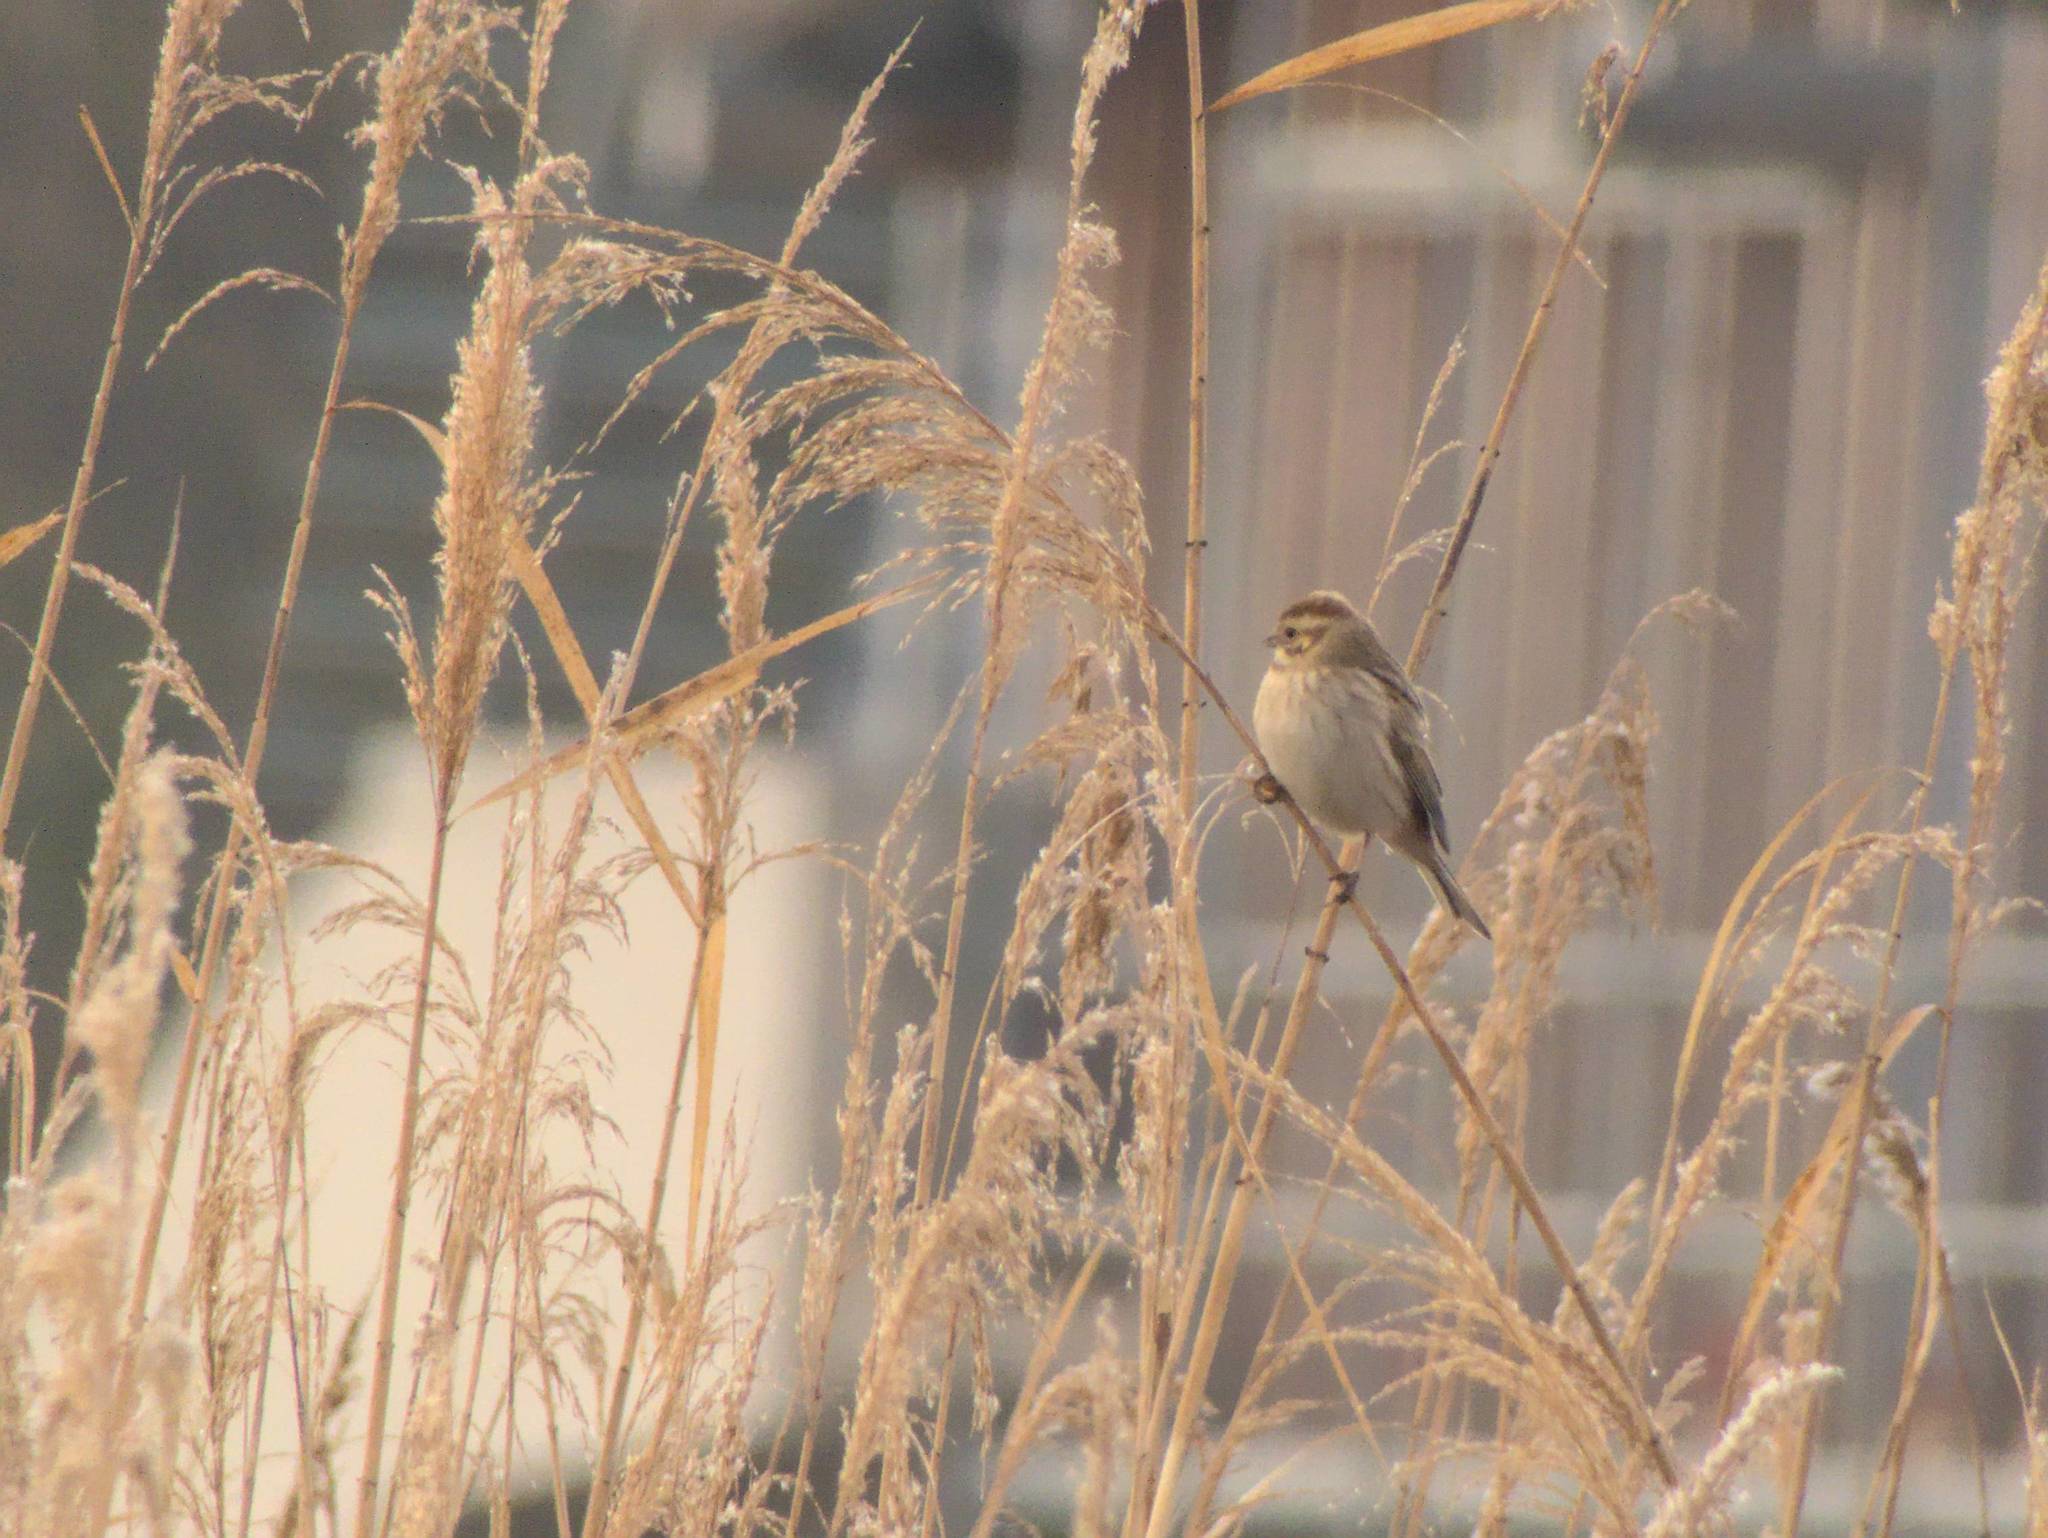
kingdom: Animalia
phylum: Chordata
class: Aves
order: Passeriformes
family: Emberizidae
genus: Emberiza
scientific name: Emberiza schoeniclus
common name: Reed bunting
